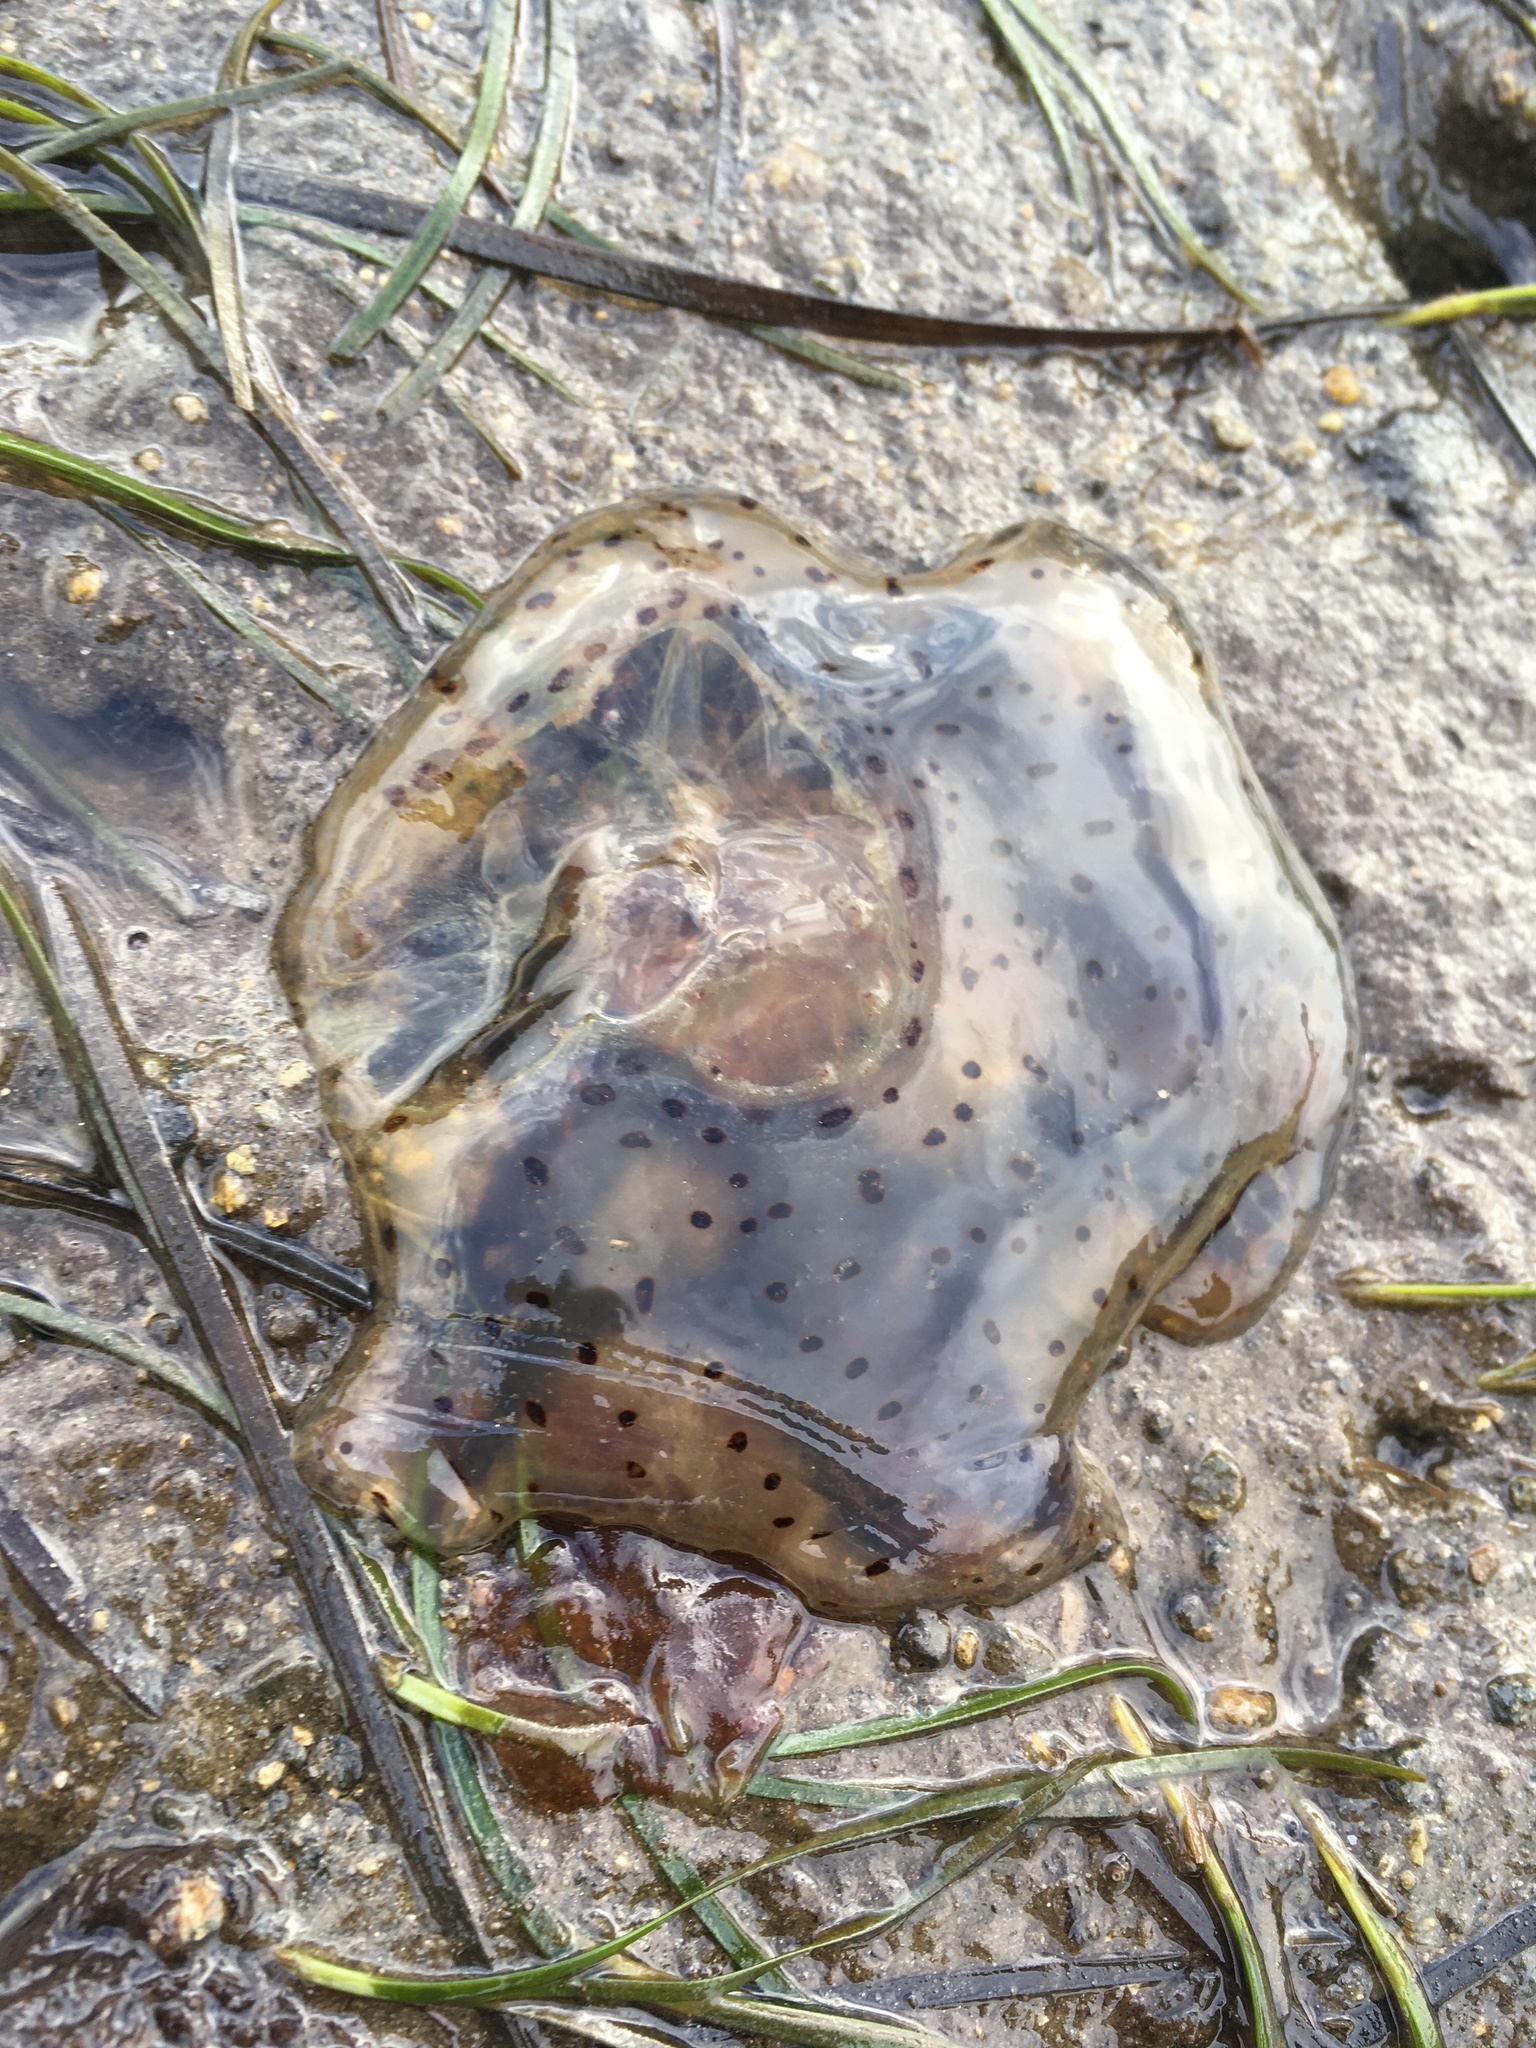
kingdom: Animalia
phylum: Cnidaria
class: Scyphozoa
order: Semaeostomeae
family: Cyaneidae
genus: Desmonema
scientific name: Desmonema gaudichaudi
